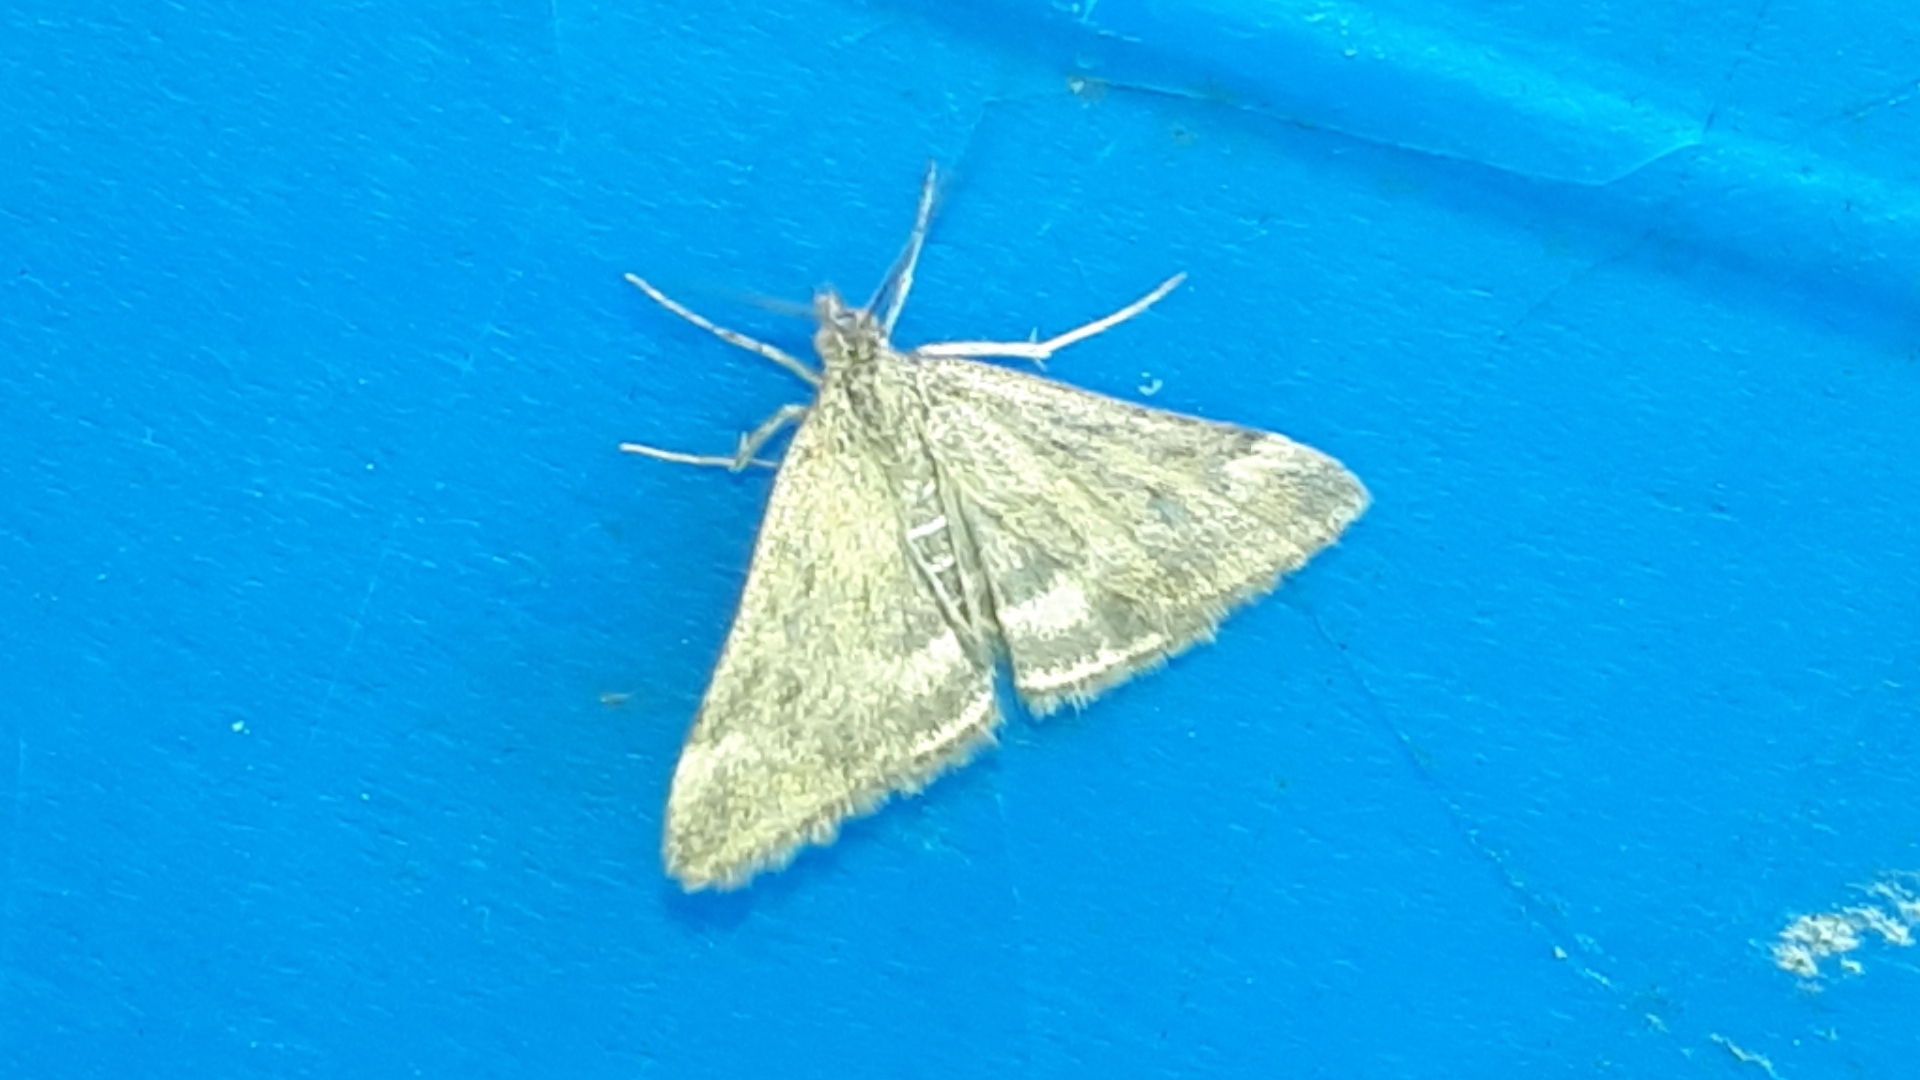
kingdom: Animalia
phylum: Arthropoda
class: Insecta
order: Lepidoptera
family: Crambidae
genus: Pyrausta
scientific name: Pyrausta despicata
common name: Straw-barred pearl
